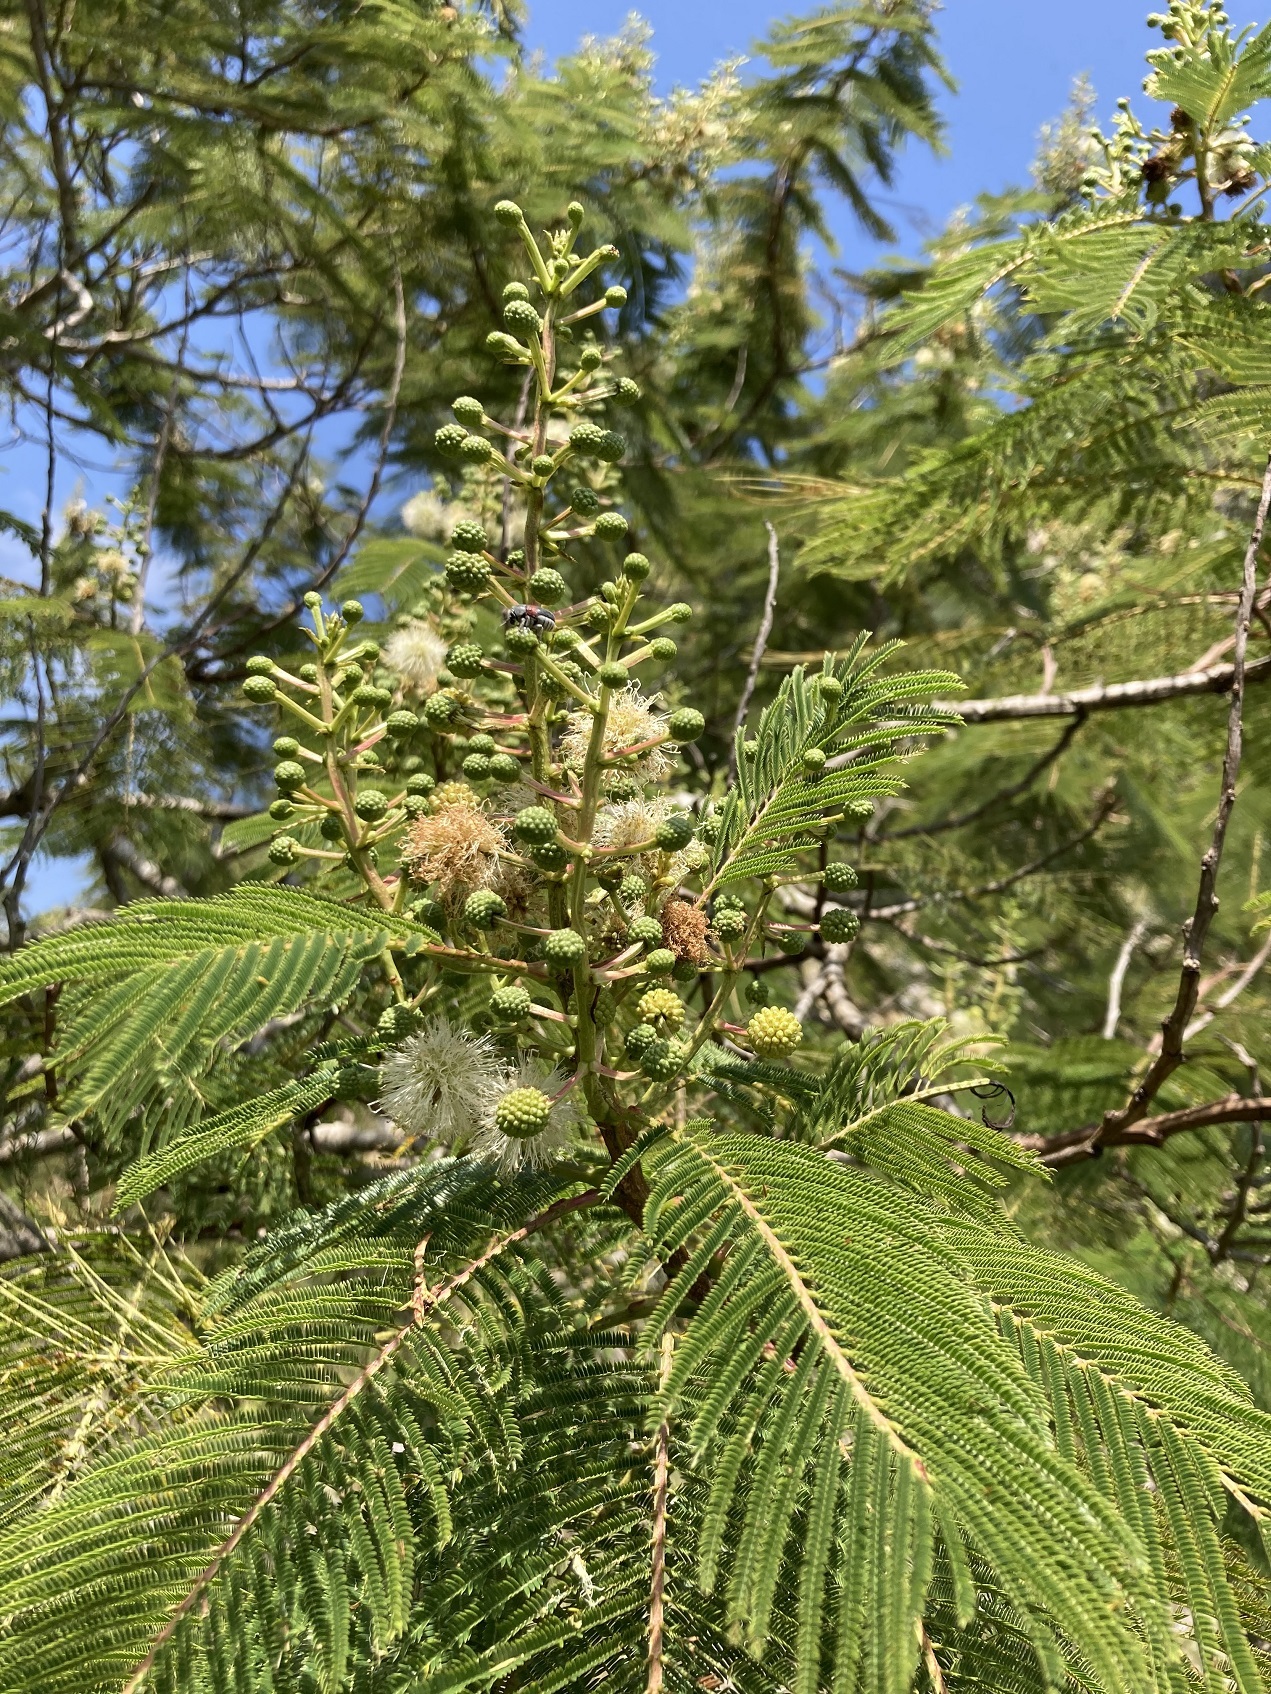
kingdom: Plantae
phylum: Tracheophyta
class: Magnoliopsida
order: Fabales
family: Fabaceae
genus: Lysiloma
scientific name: Lysiloma auritum
